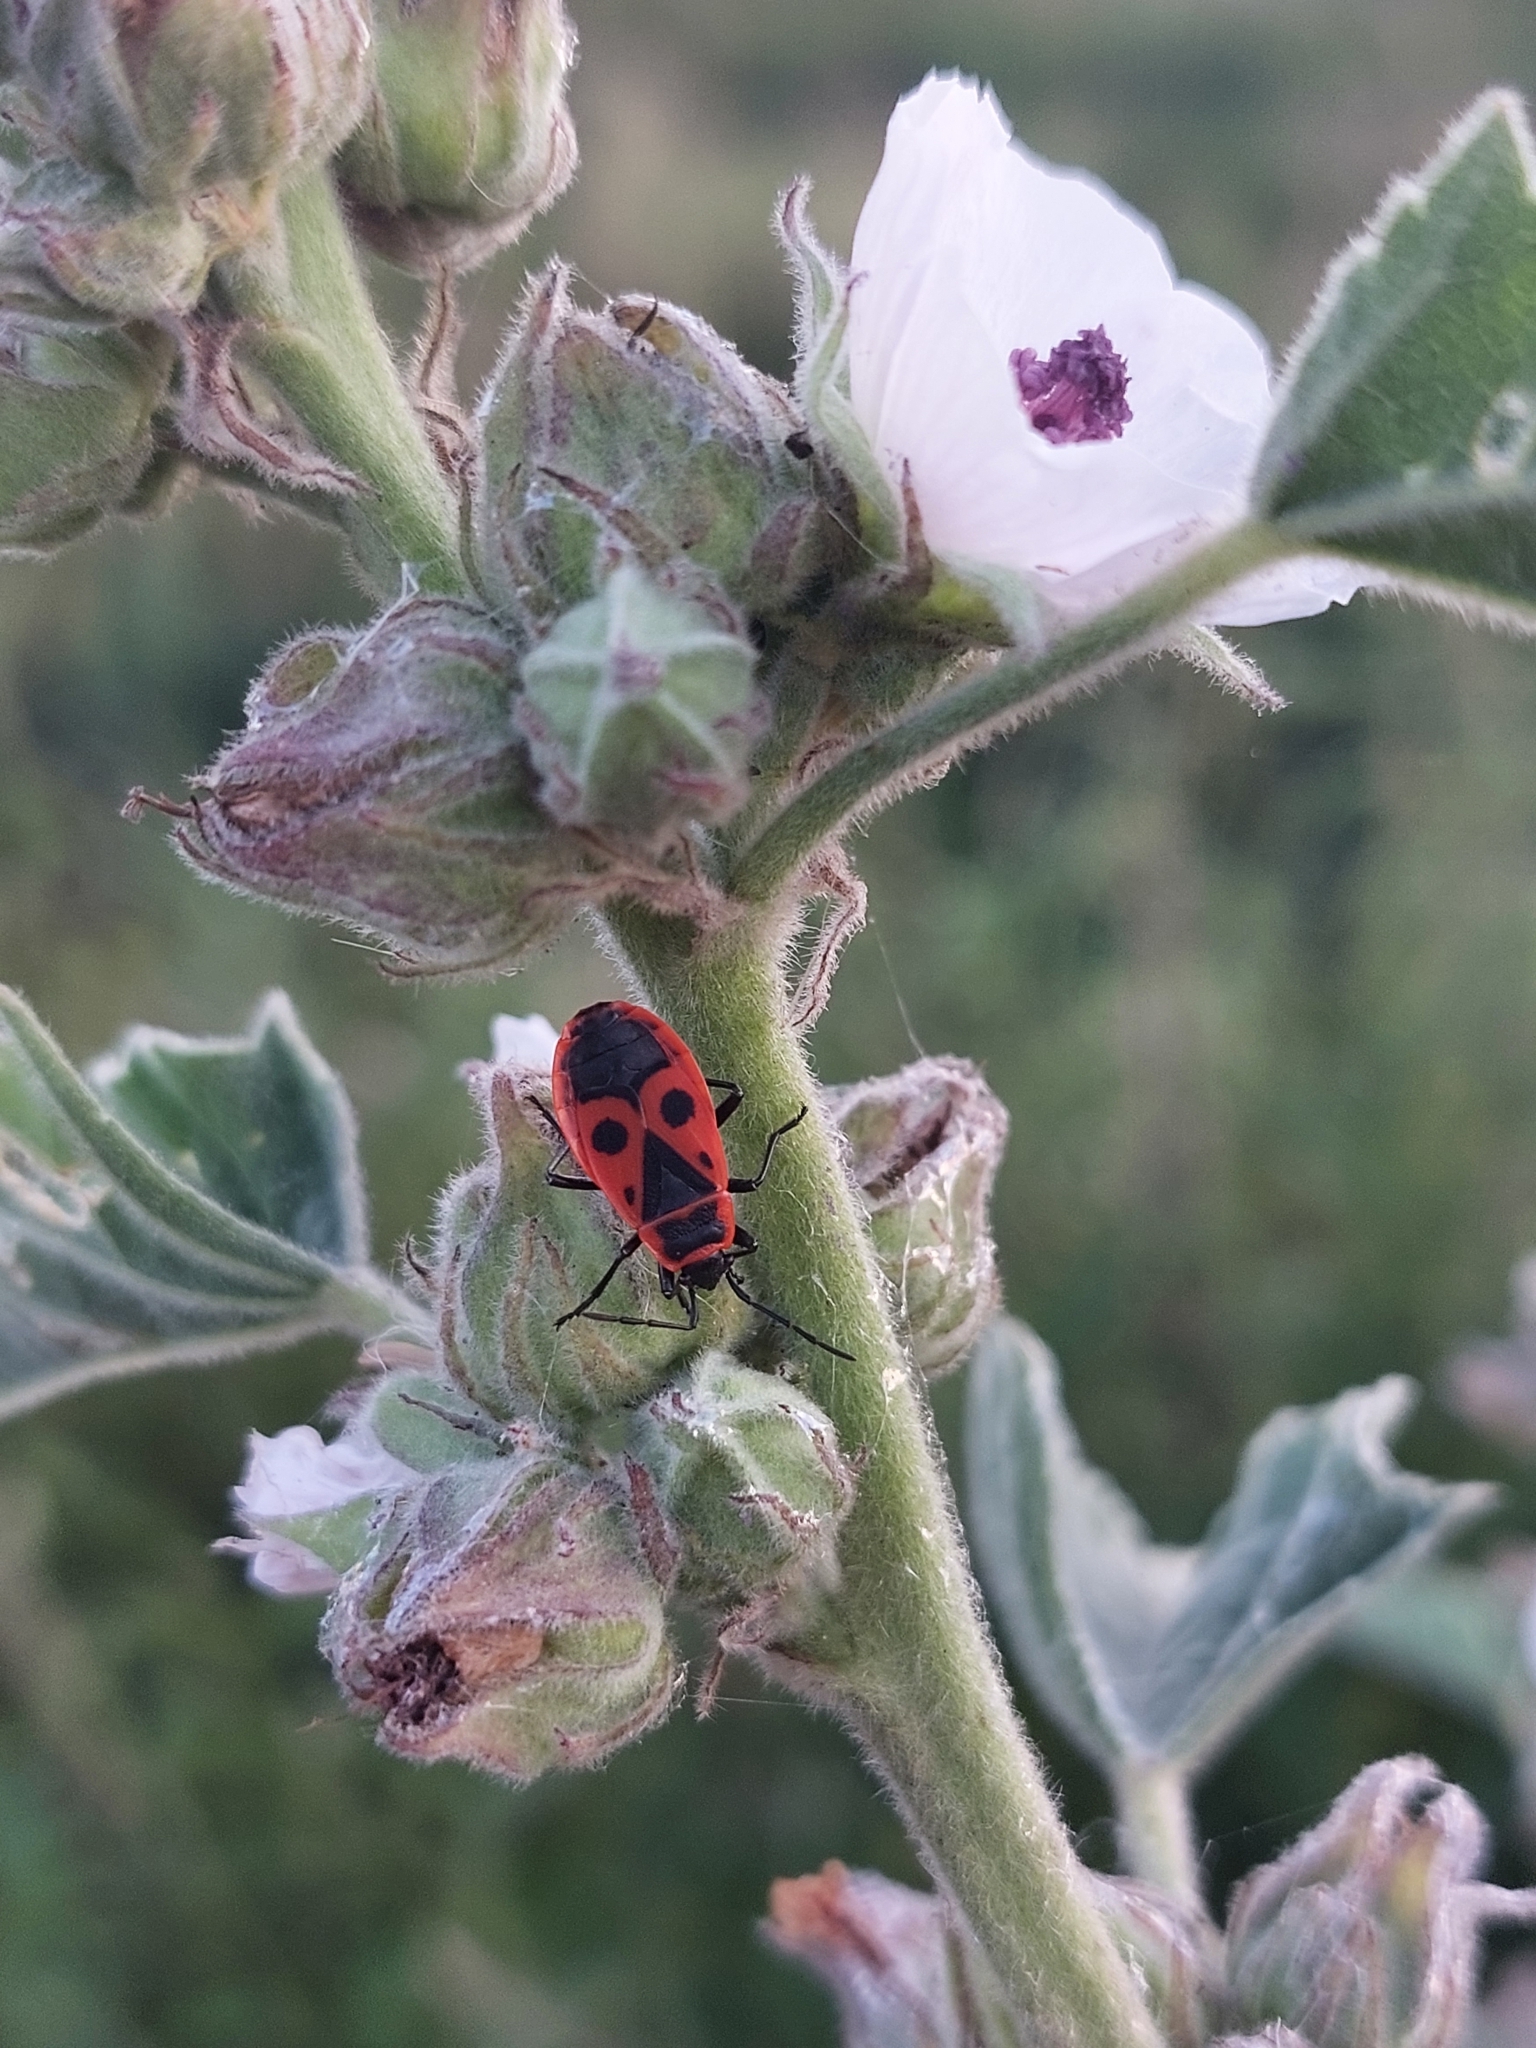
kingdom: Animalia
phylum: Arthropoda
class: Insecta
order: Hemiptera
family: Pyrrhocoridae
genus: Pyrrhocoris
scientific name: Pyrrhocoris apterus
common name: Firebug
